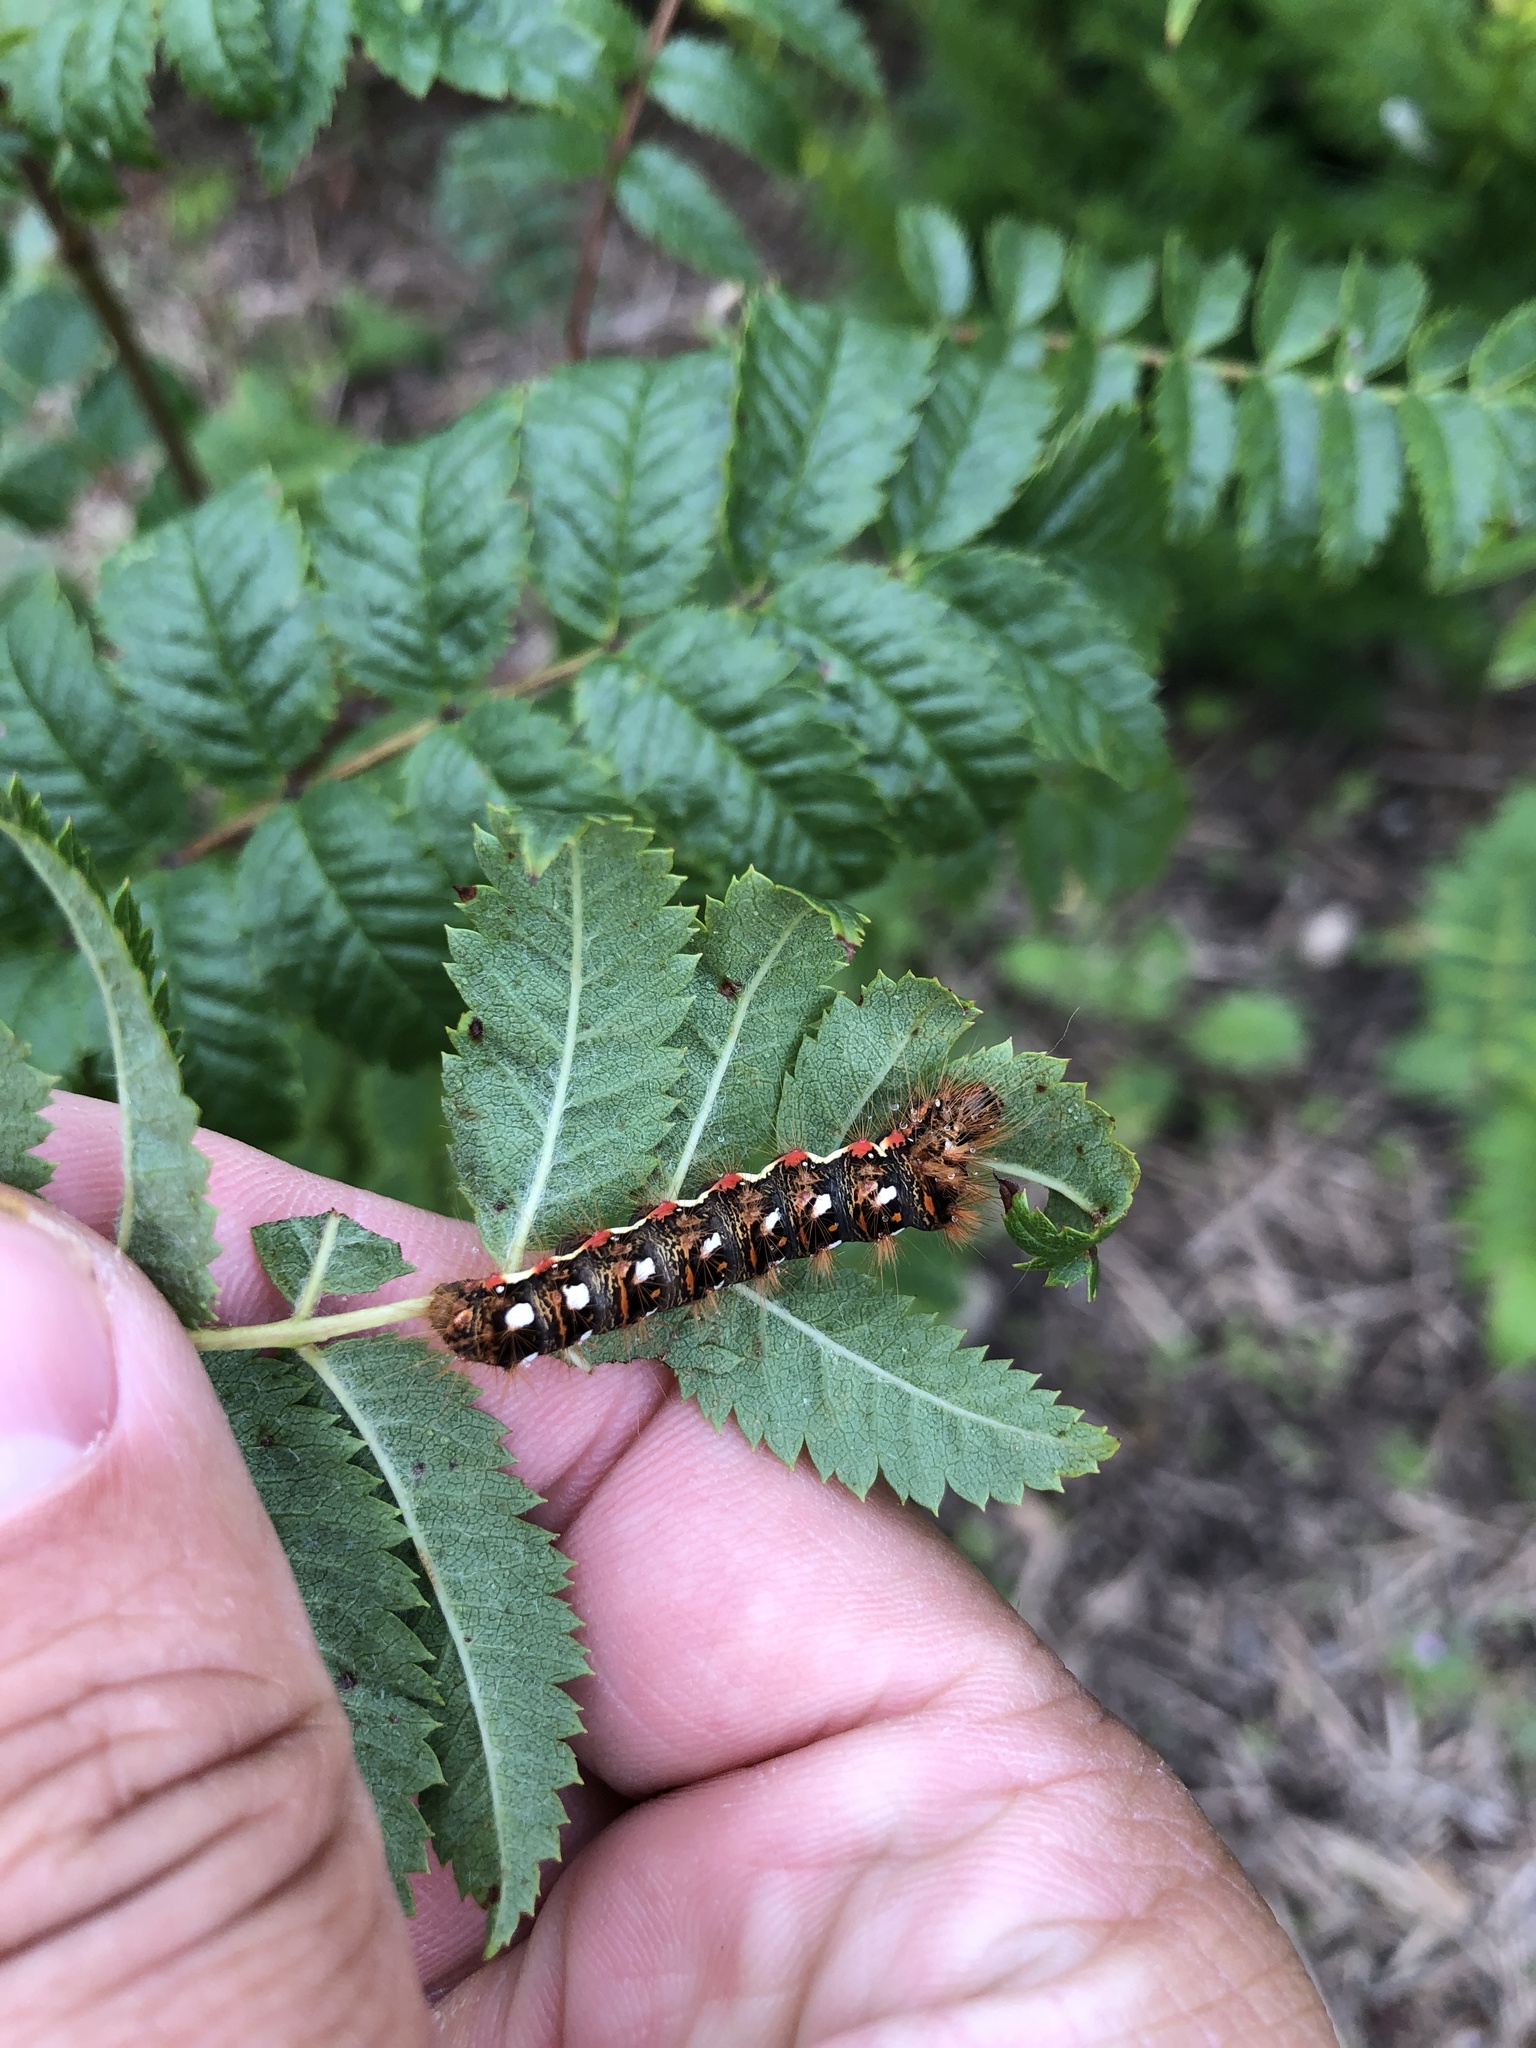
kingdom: Animalia
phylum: Arthropoda
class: Insecta
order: Lepidoptera
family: Noctuidae
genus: Acronicta
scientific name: Acronicta rumicis
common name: Knot grass
